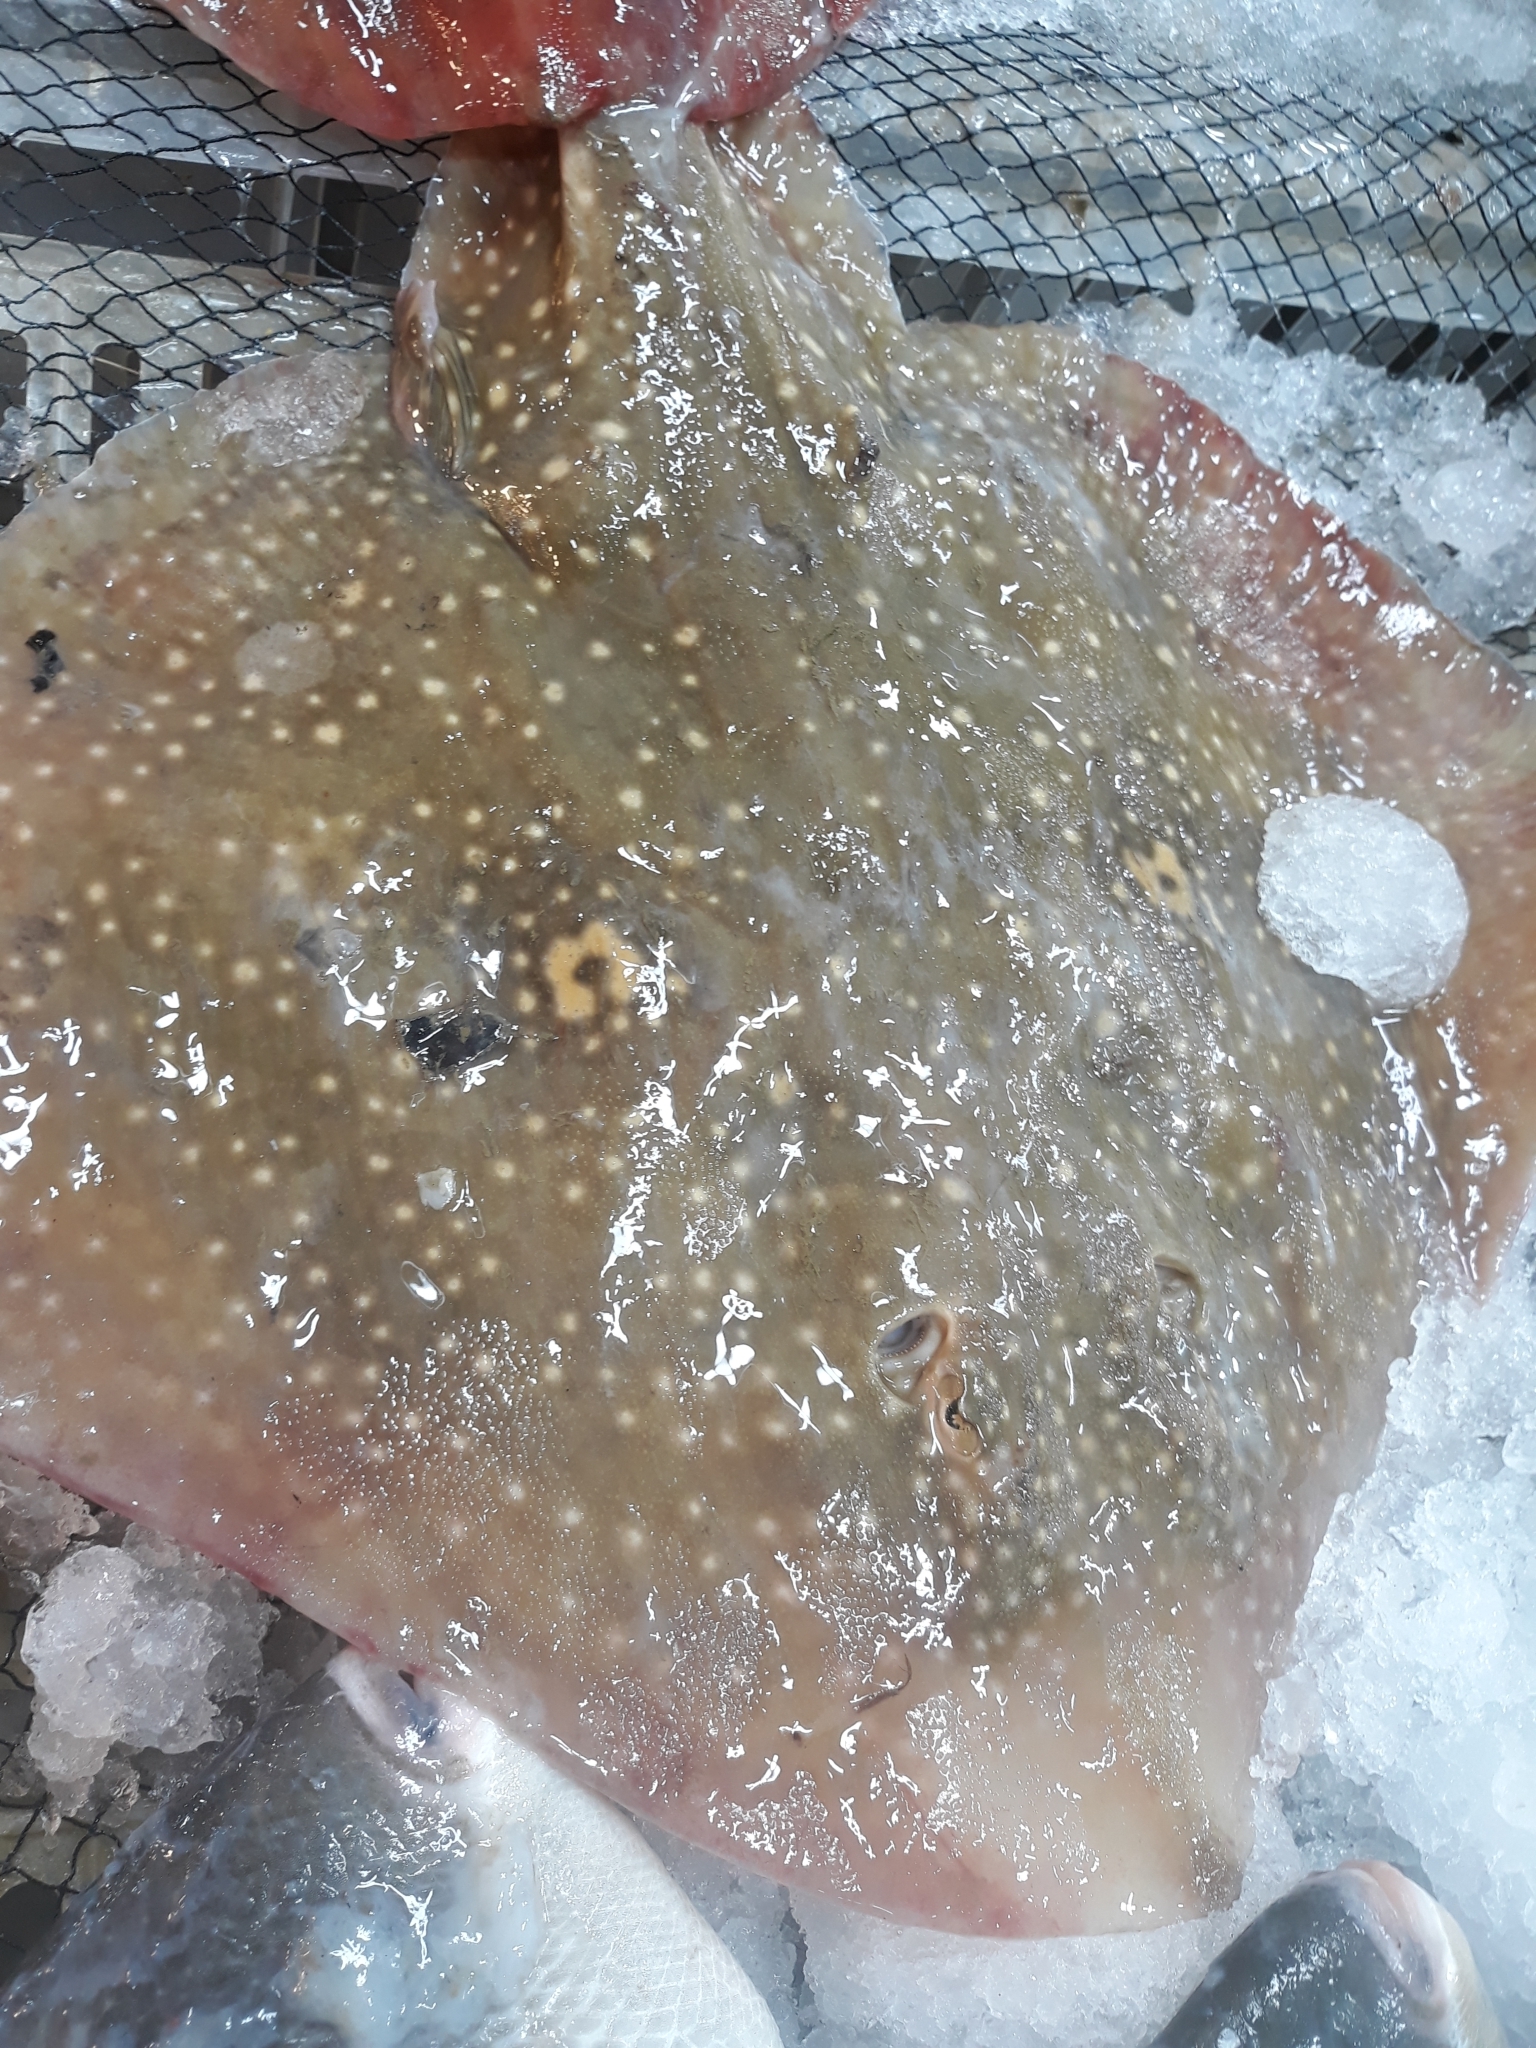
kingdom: Animalia
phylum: Chordata
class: Elasmobranchii
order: Rajiformes
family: Rajidae
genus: Raja
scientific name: Raja radula
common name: Rough ray
